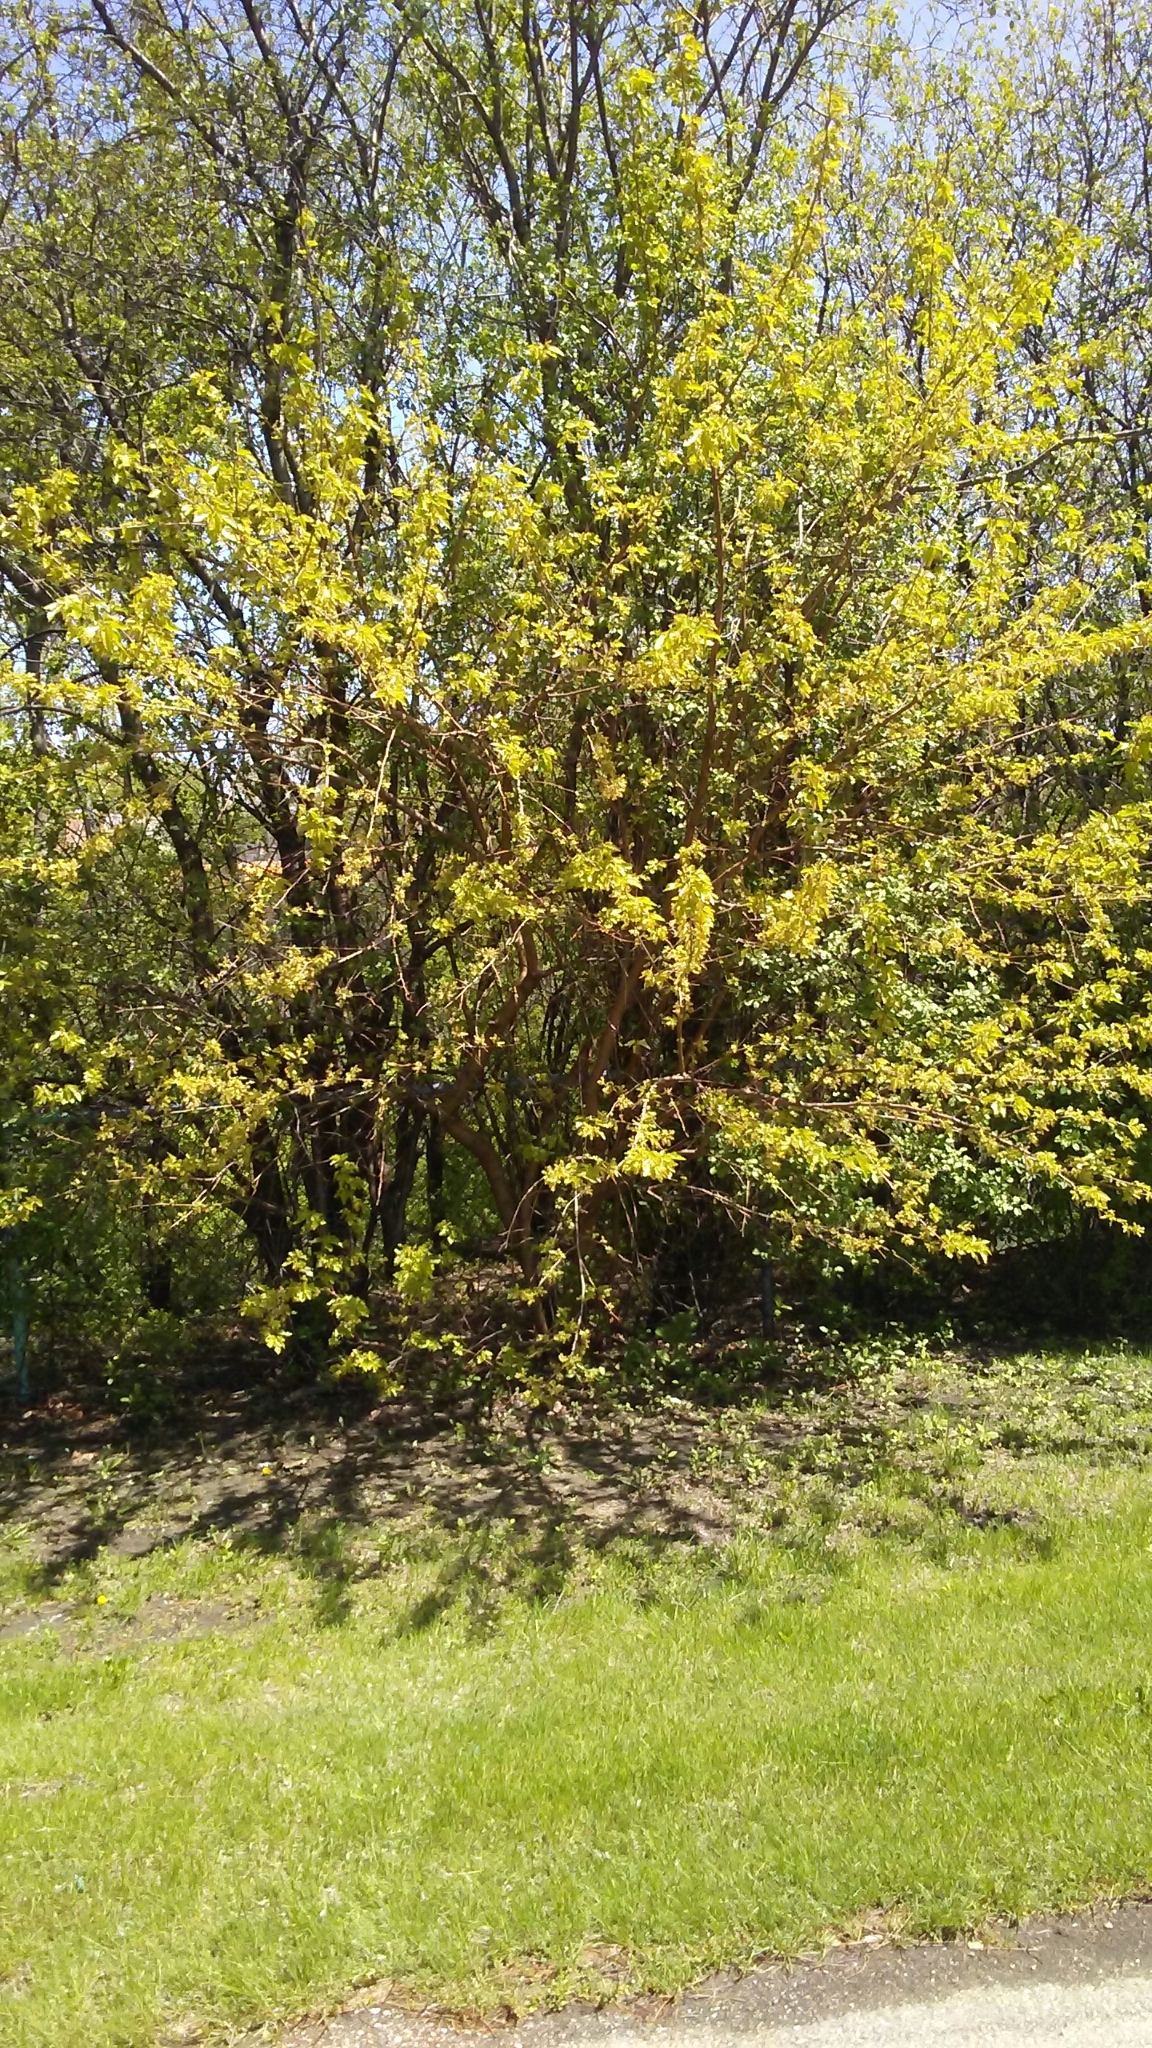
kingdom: Plantae
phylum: Tracheophyta
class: Magnoliopsida
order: Rosales
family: Moraceae
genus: Morus
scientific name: Morus alba
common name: White mulberry
